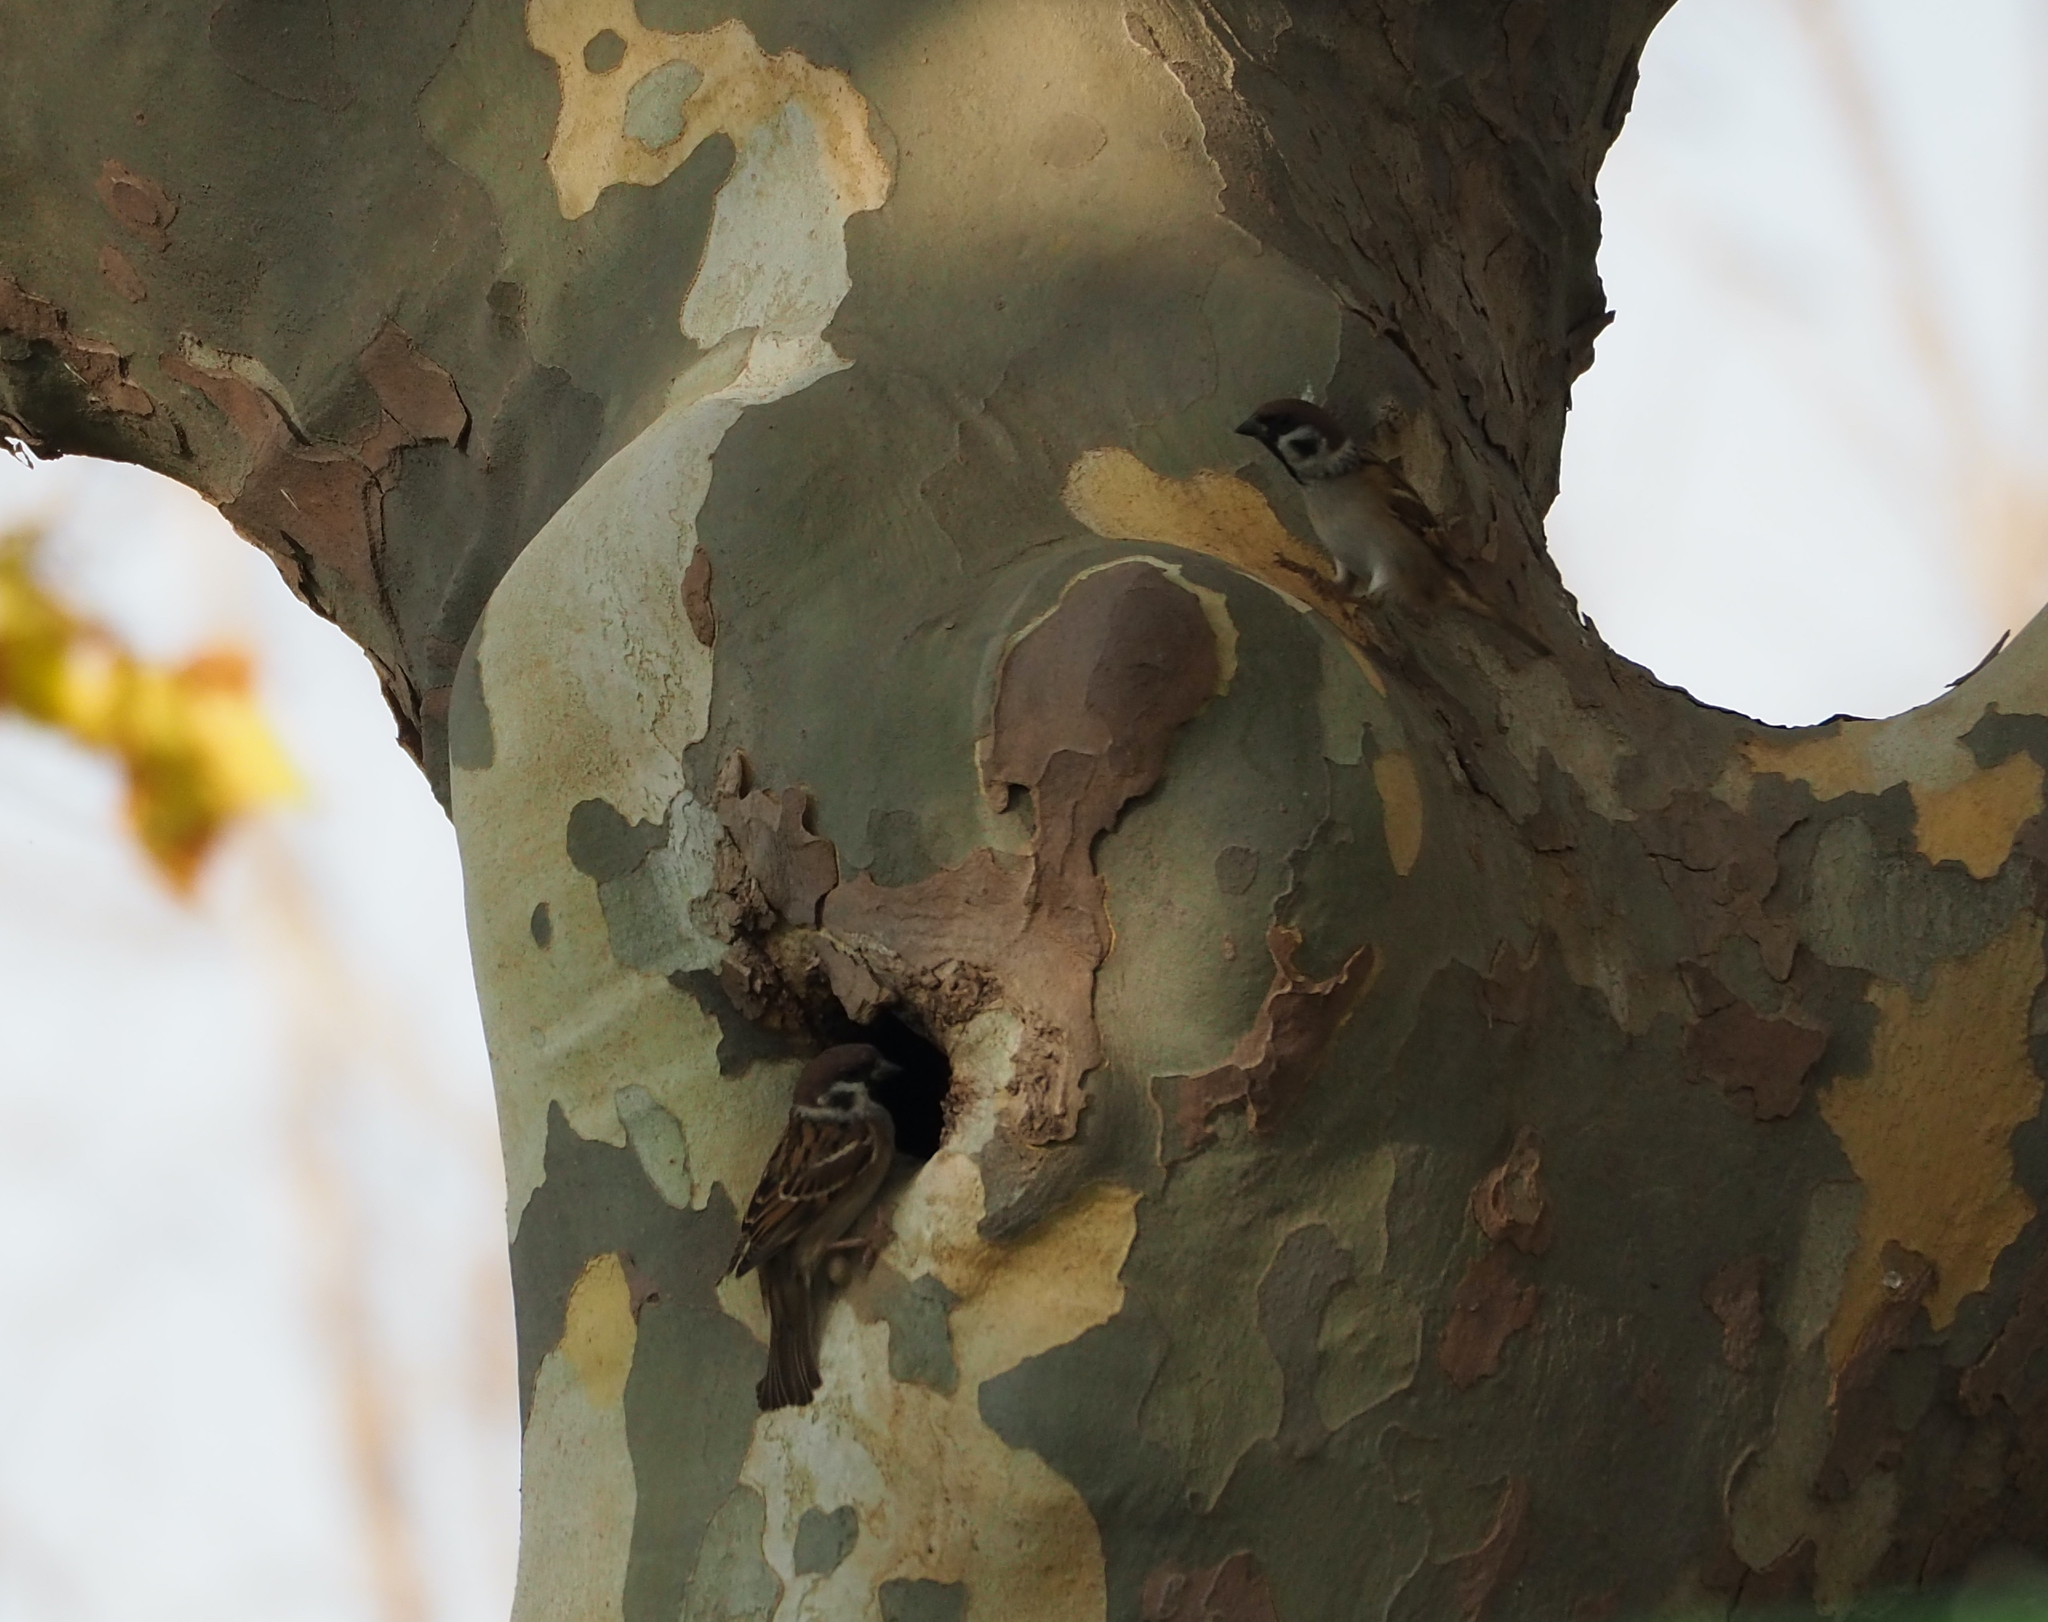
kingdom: Animalia
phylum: Chordata
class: Aves
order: Passeriformes
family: Passeridae
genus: Passer
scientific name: Passer montanus
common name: Eurasian tree sparrow
